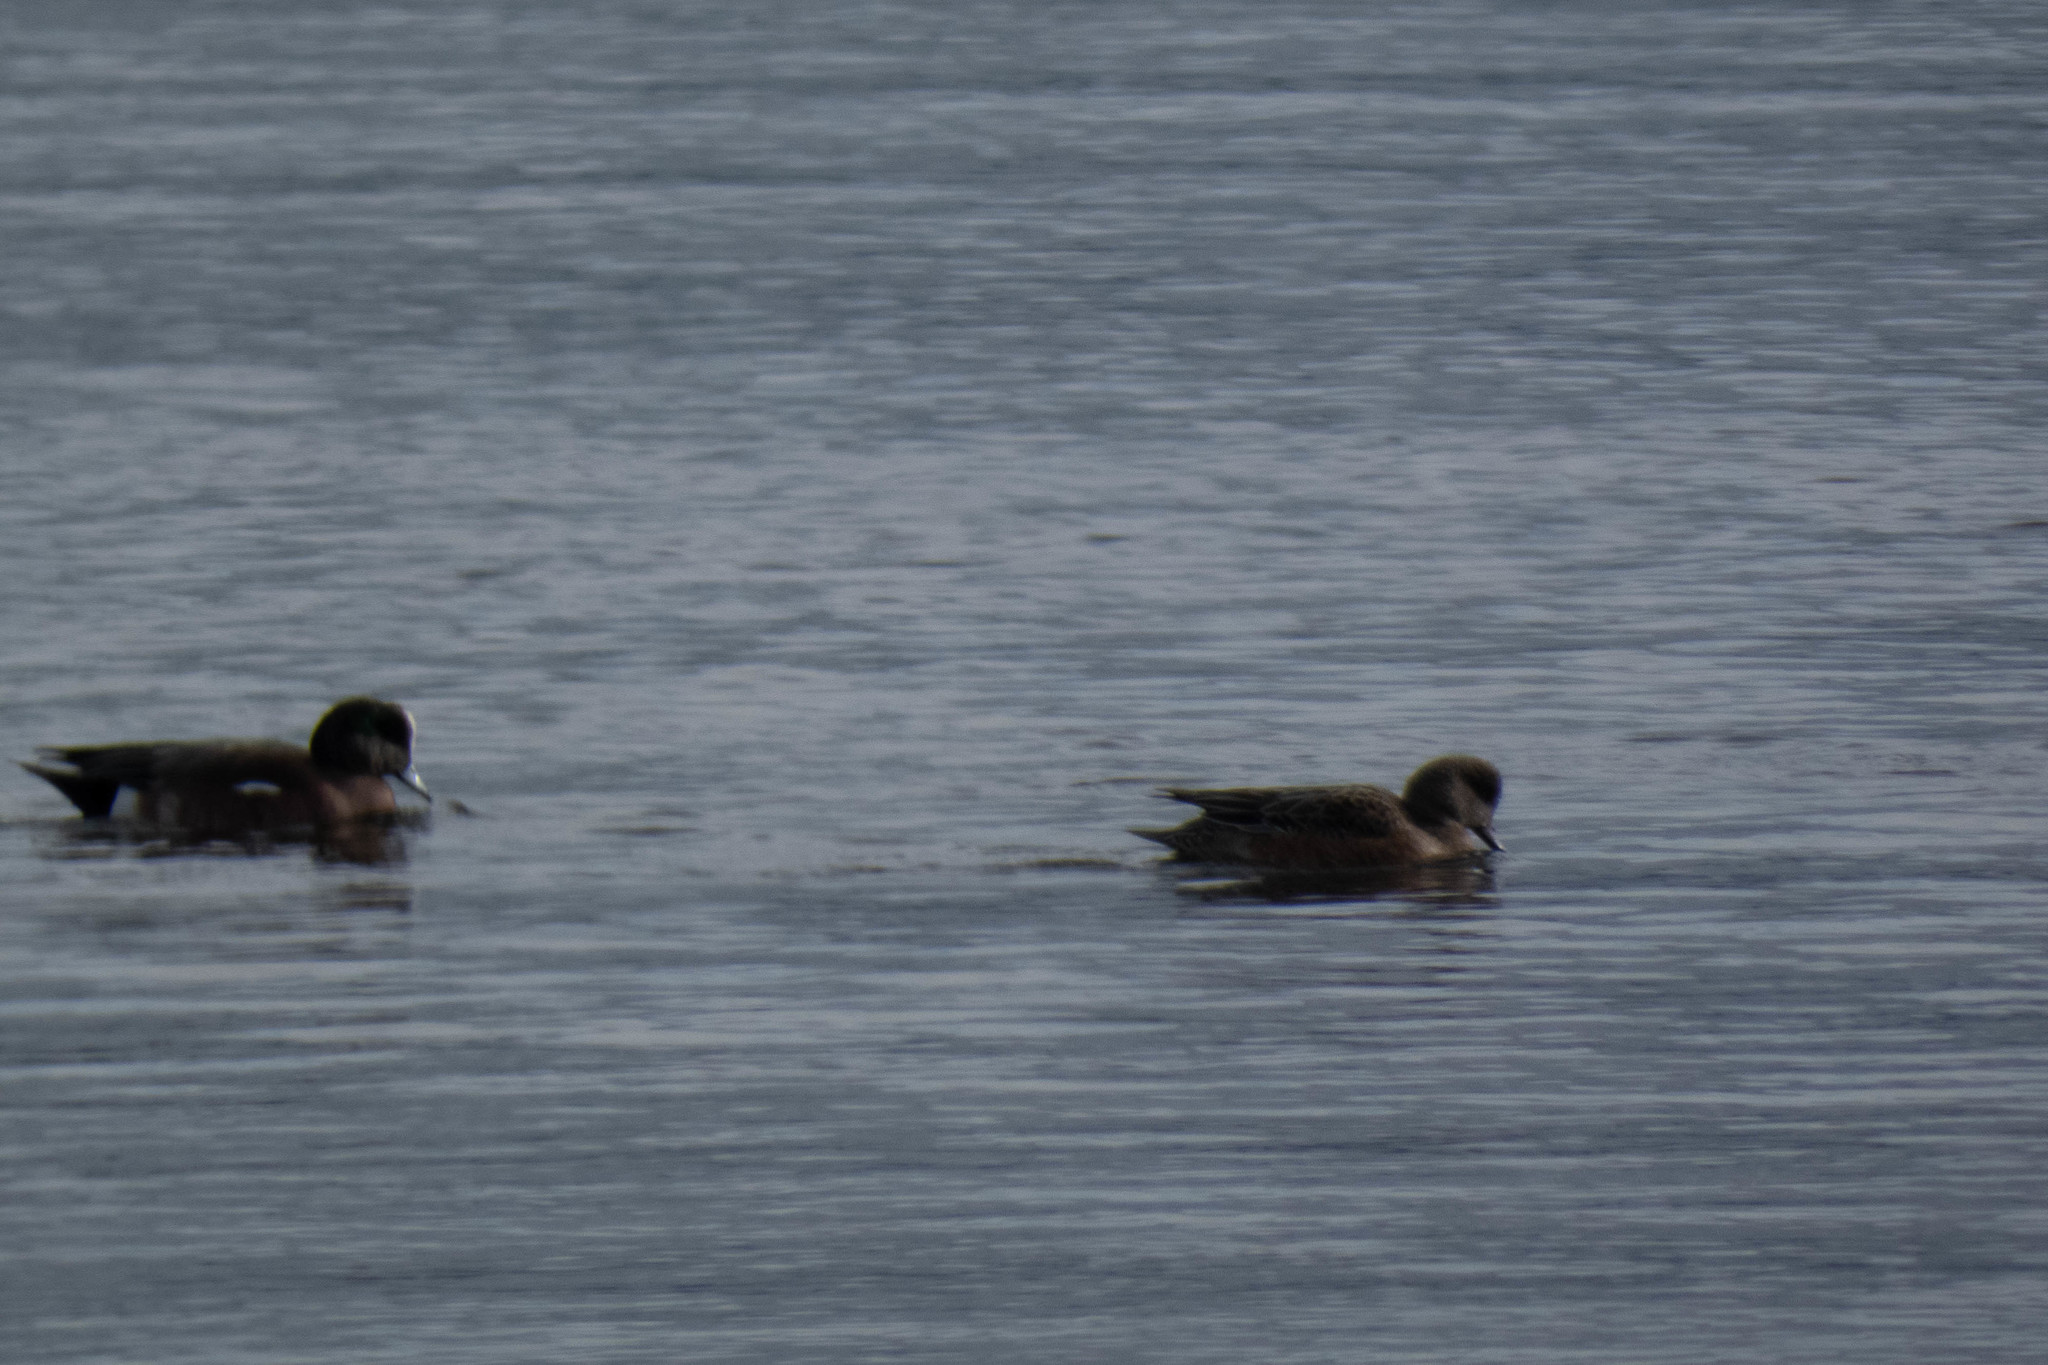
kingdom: Animalia
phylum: Chordata
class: Aves
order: Anseriformes
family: Anatidae
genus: Mareca
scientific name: Mareca americana
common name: American wigeon
